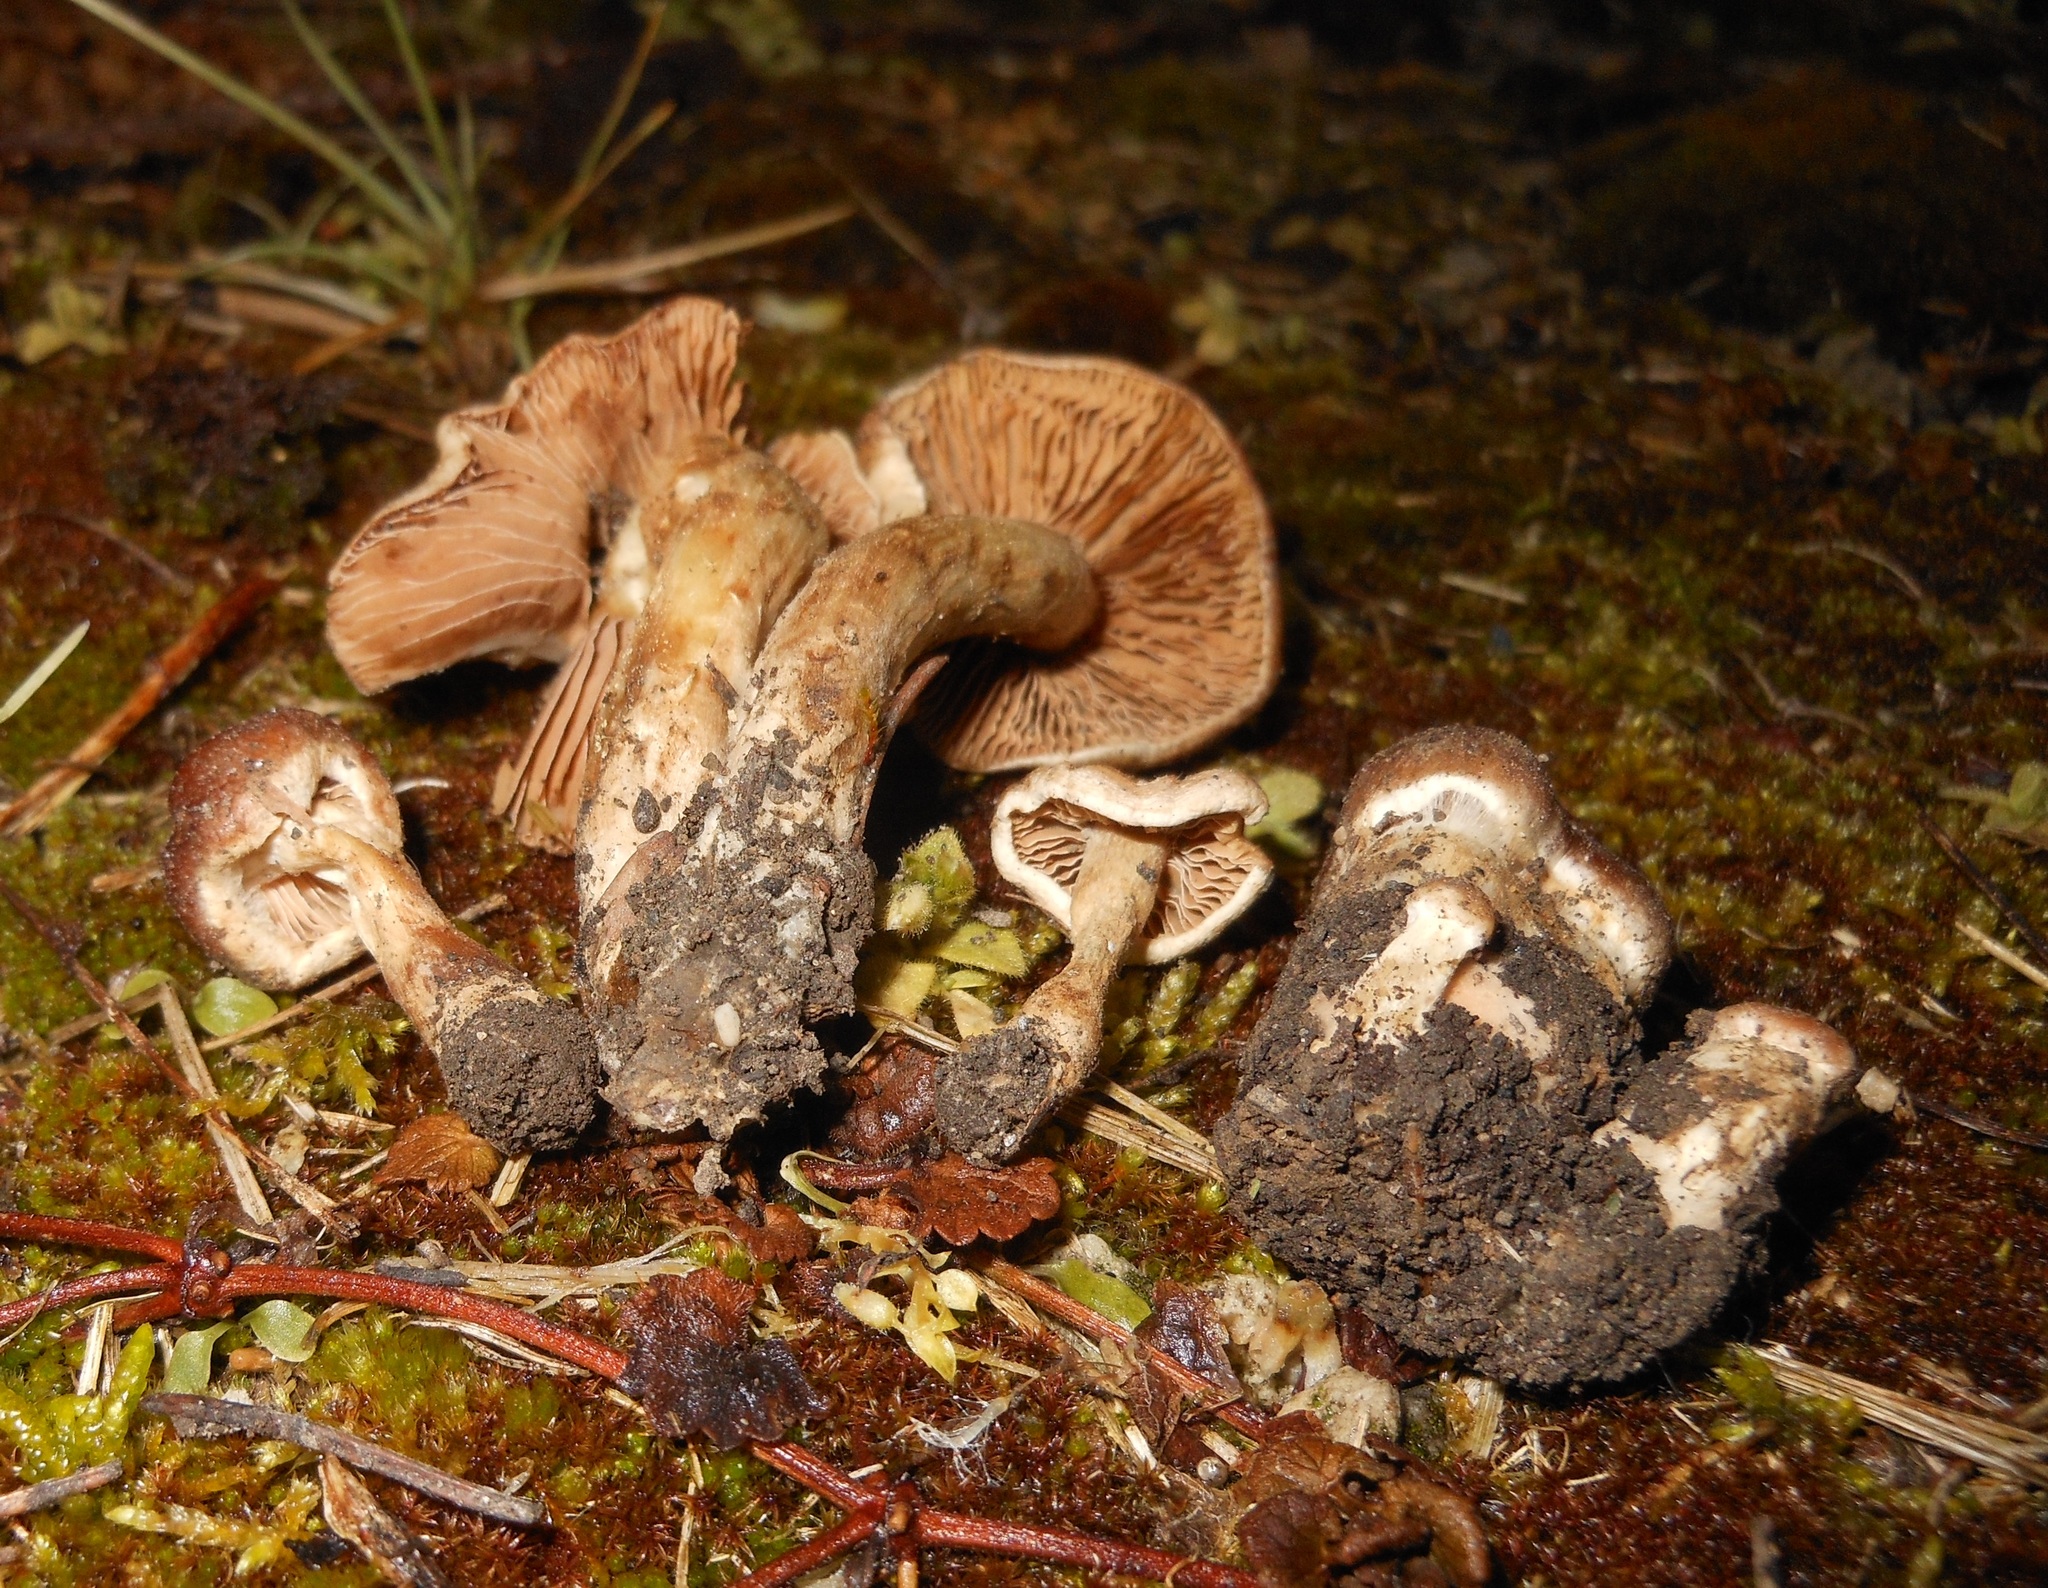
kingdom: Fungi
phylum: Basidiomycota
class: Agaricomycetes
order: Agaricales
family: Hymenogastraceae
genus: Hebeloma
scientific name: Hebeloma mesophaeum
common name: Veiled poisonpie
